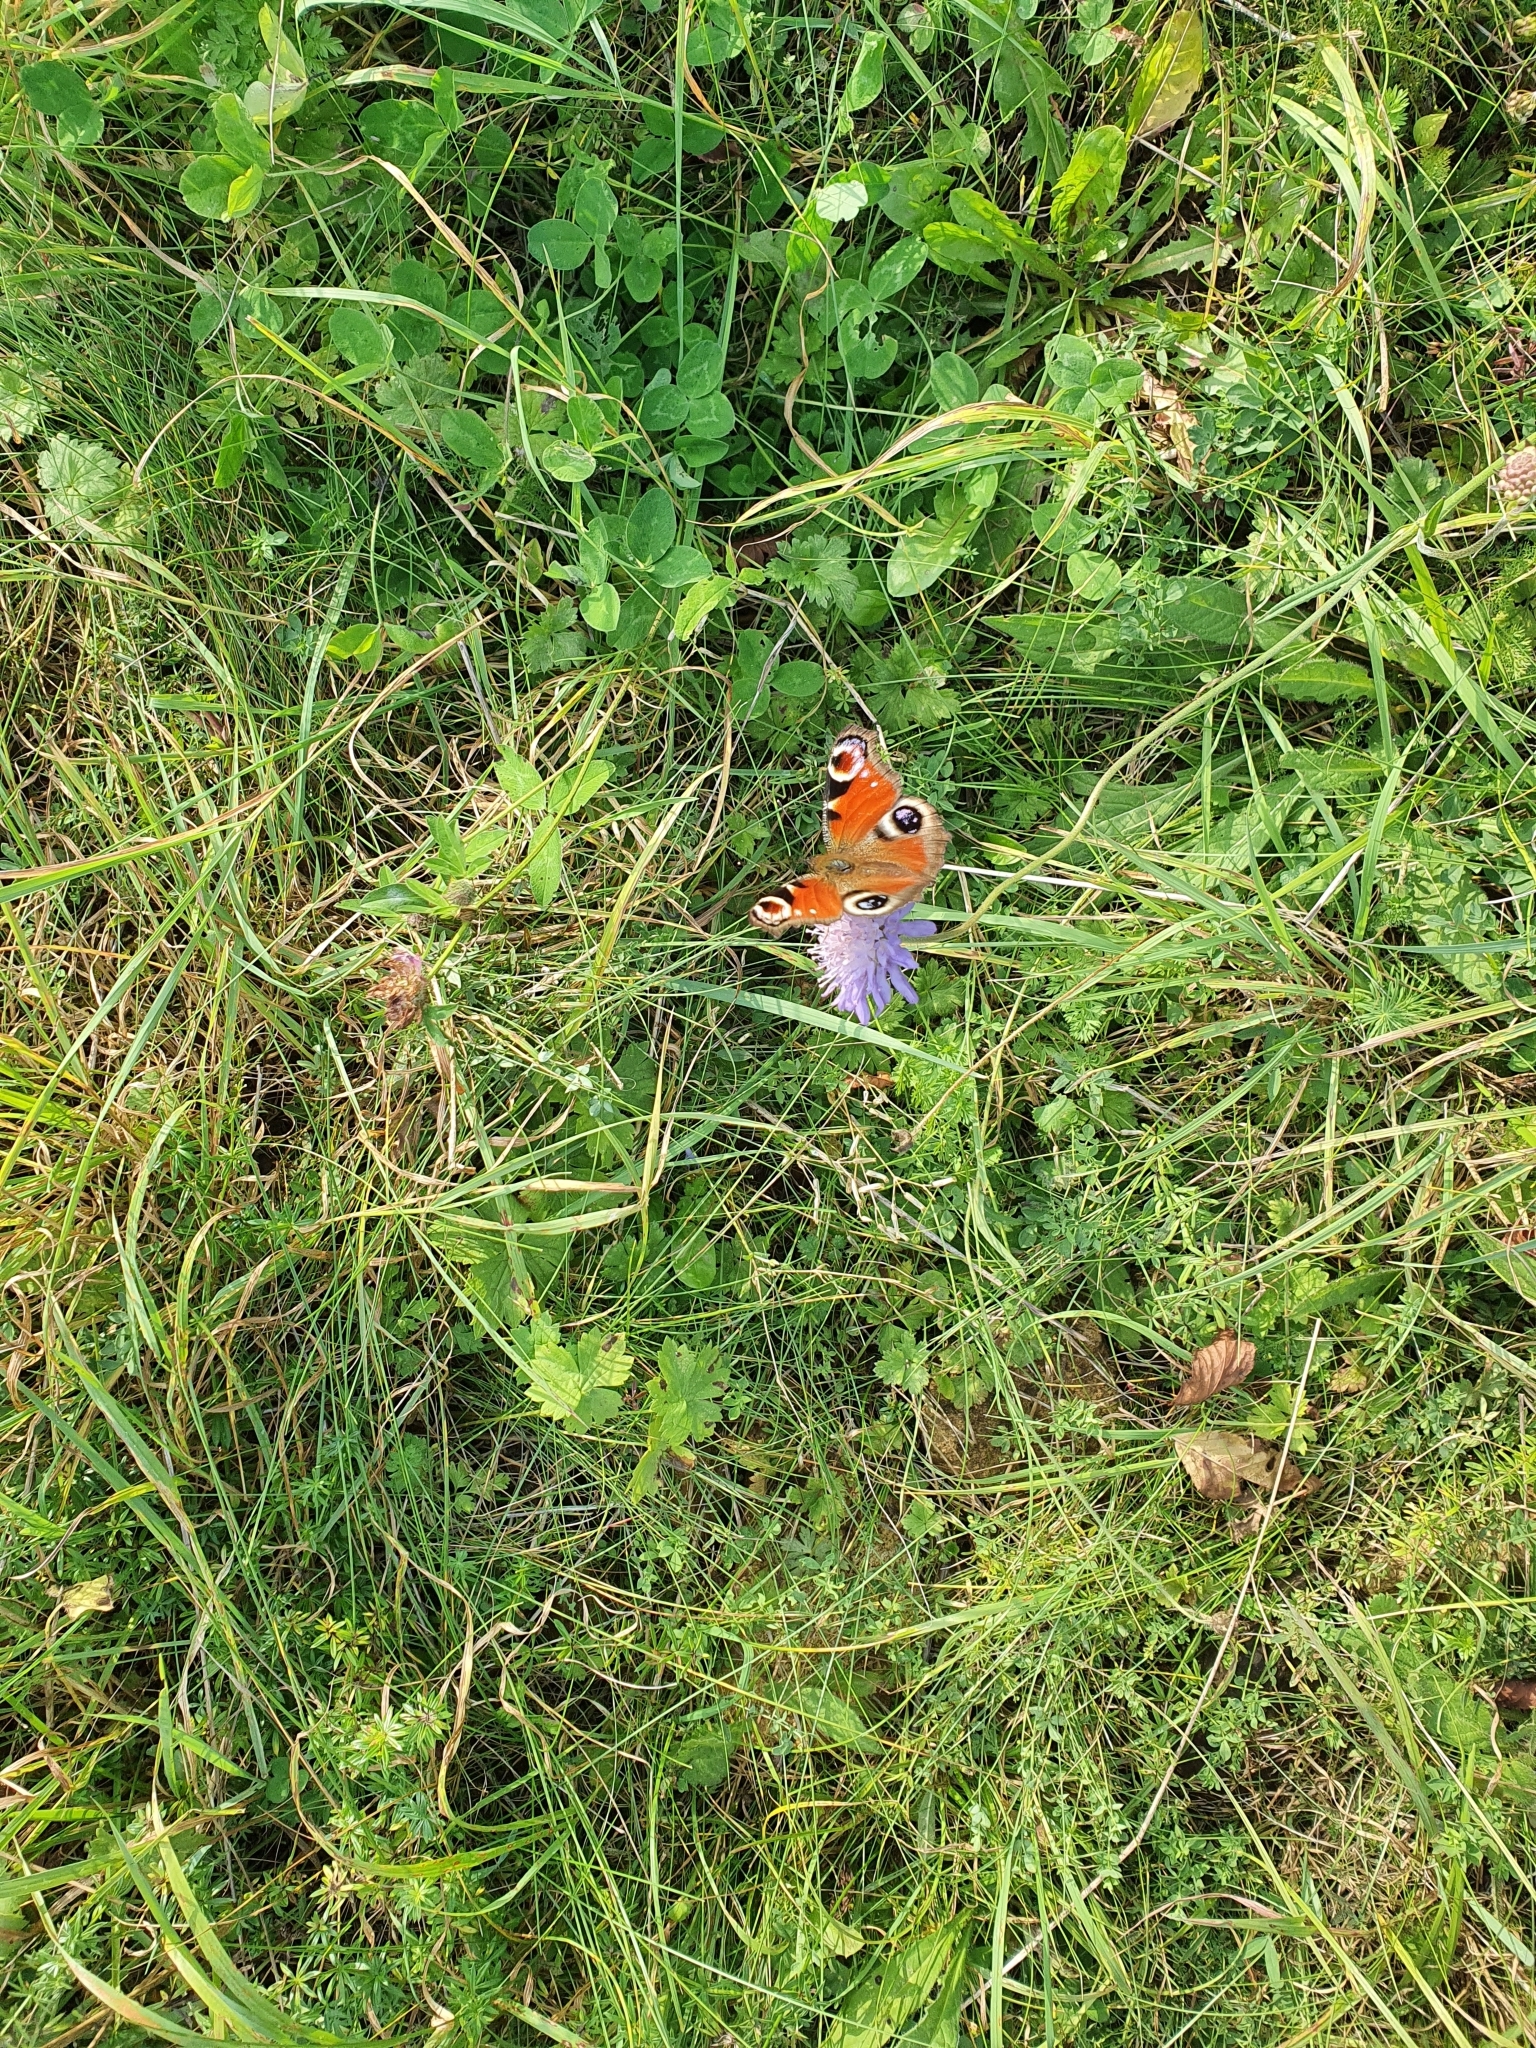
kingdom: Animalia
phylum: Arthropoda
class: Insecta
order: Lepidoptera
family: Nymphalidae
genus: Aglais
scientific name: Aglais io
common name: Peacock
